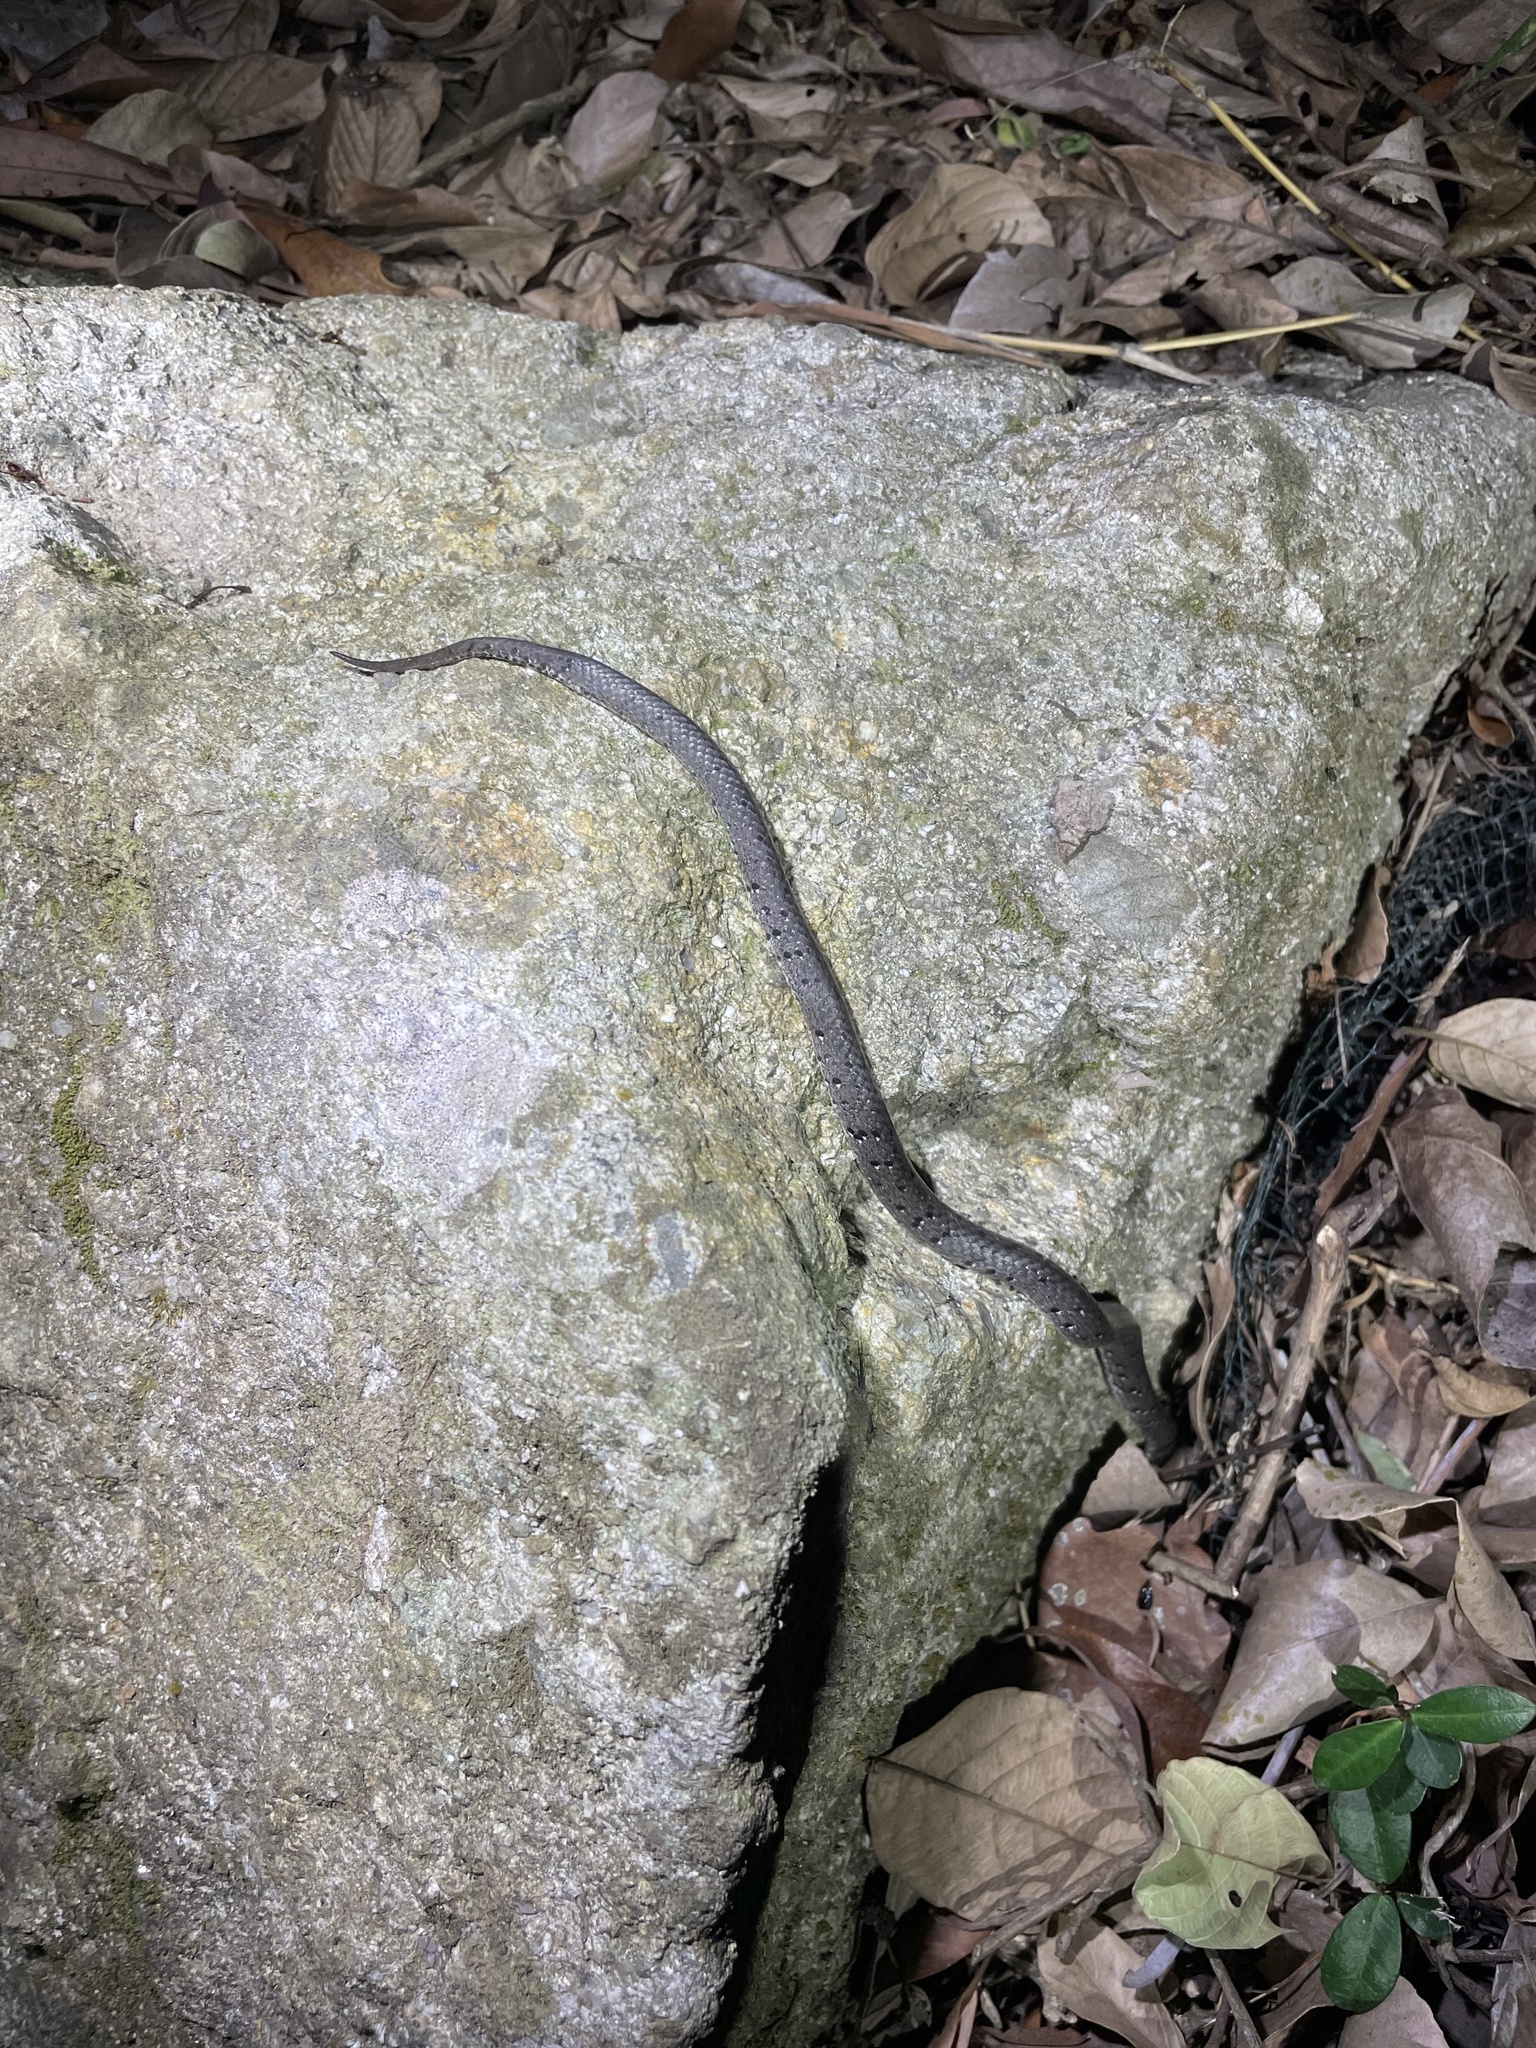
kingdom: Animalia
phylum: Chordata
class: Squamata
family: Pareidae
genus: Pareas
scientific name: Pareas margaritophorus
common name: Mountain slug snake
